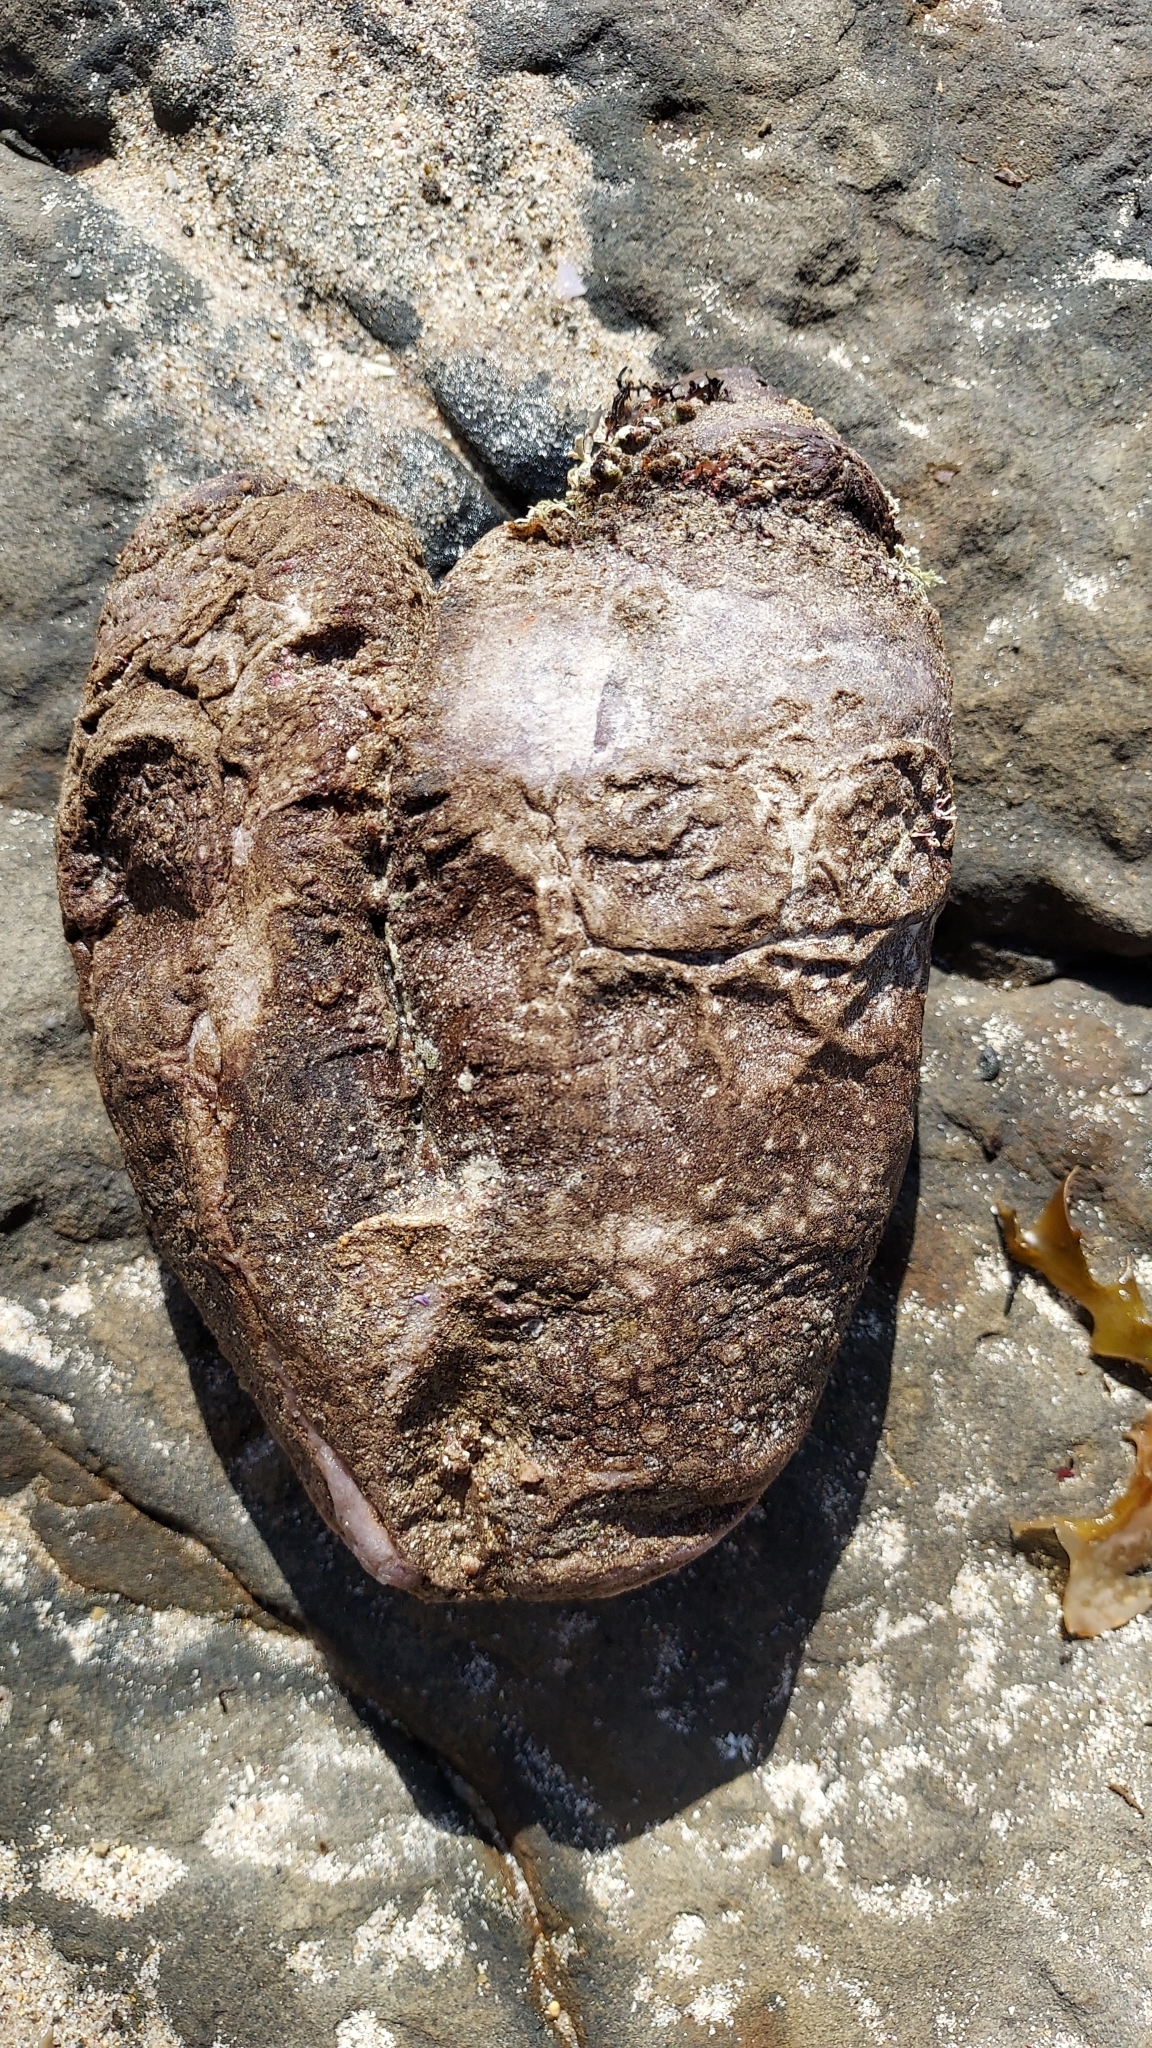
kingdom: Animalia
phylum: Chordata
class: Ascidiacea
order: Stolidobranchia
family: Pyuridae
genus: Pyura
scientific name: Pyura praeputialis
